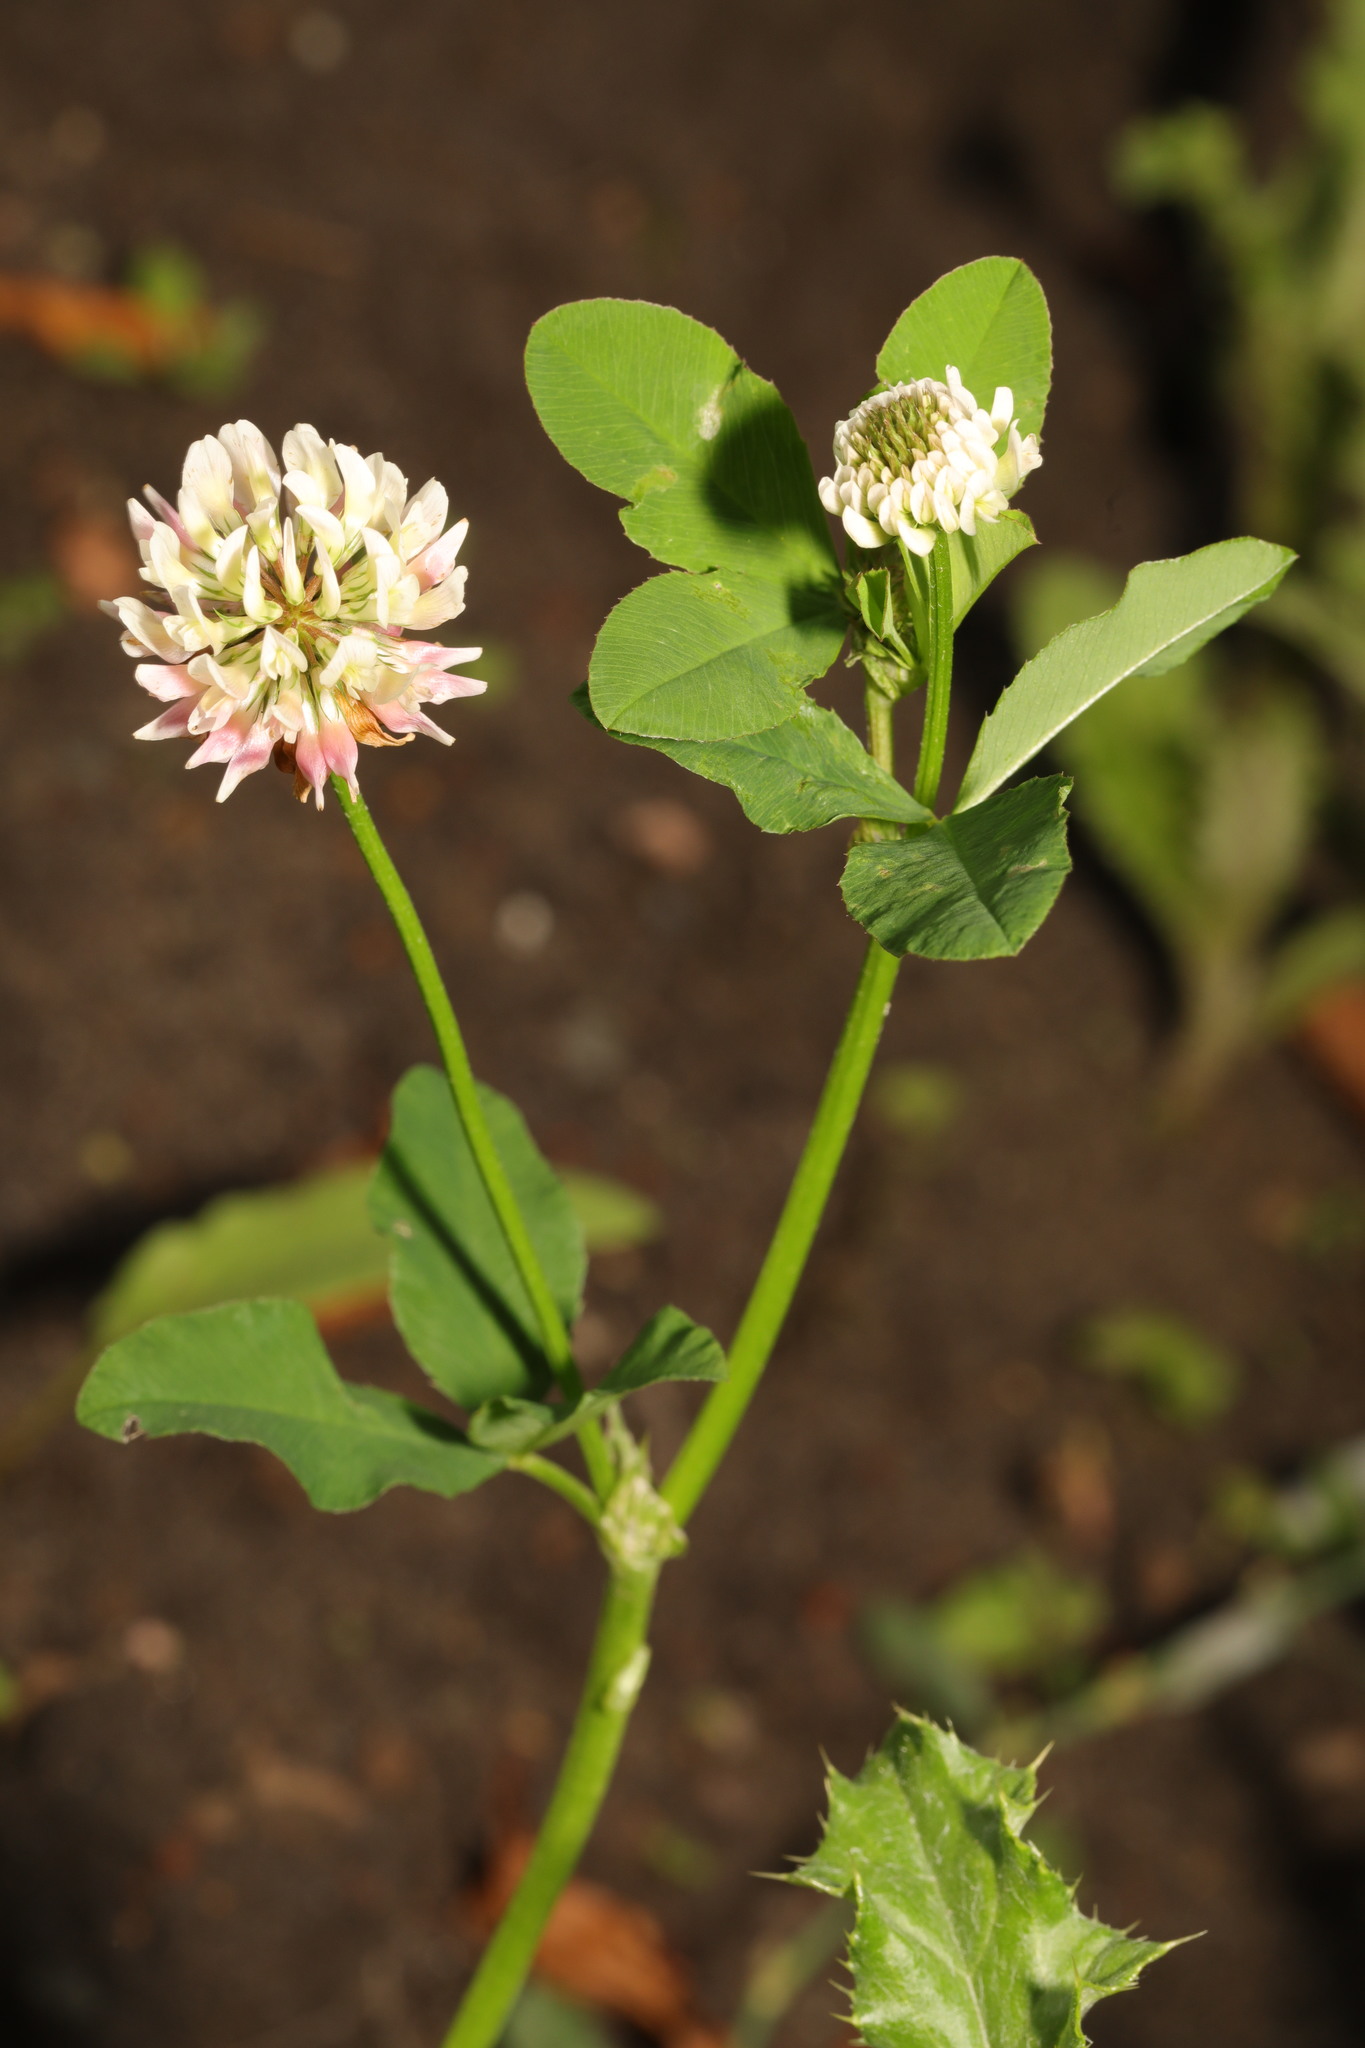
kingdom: Plantae
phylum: Tracheophyta
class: Magnoliopsida
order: Fabales
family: Fabaceae
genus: Trifolium
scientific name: Trifolium hybridum
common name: Alsike clover
